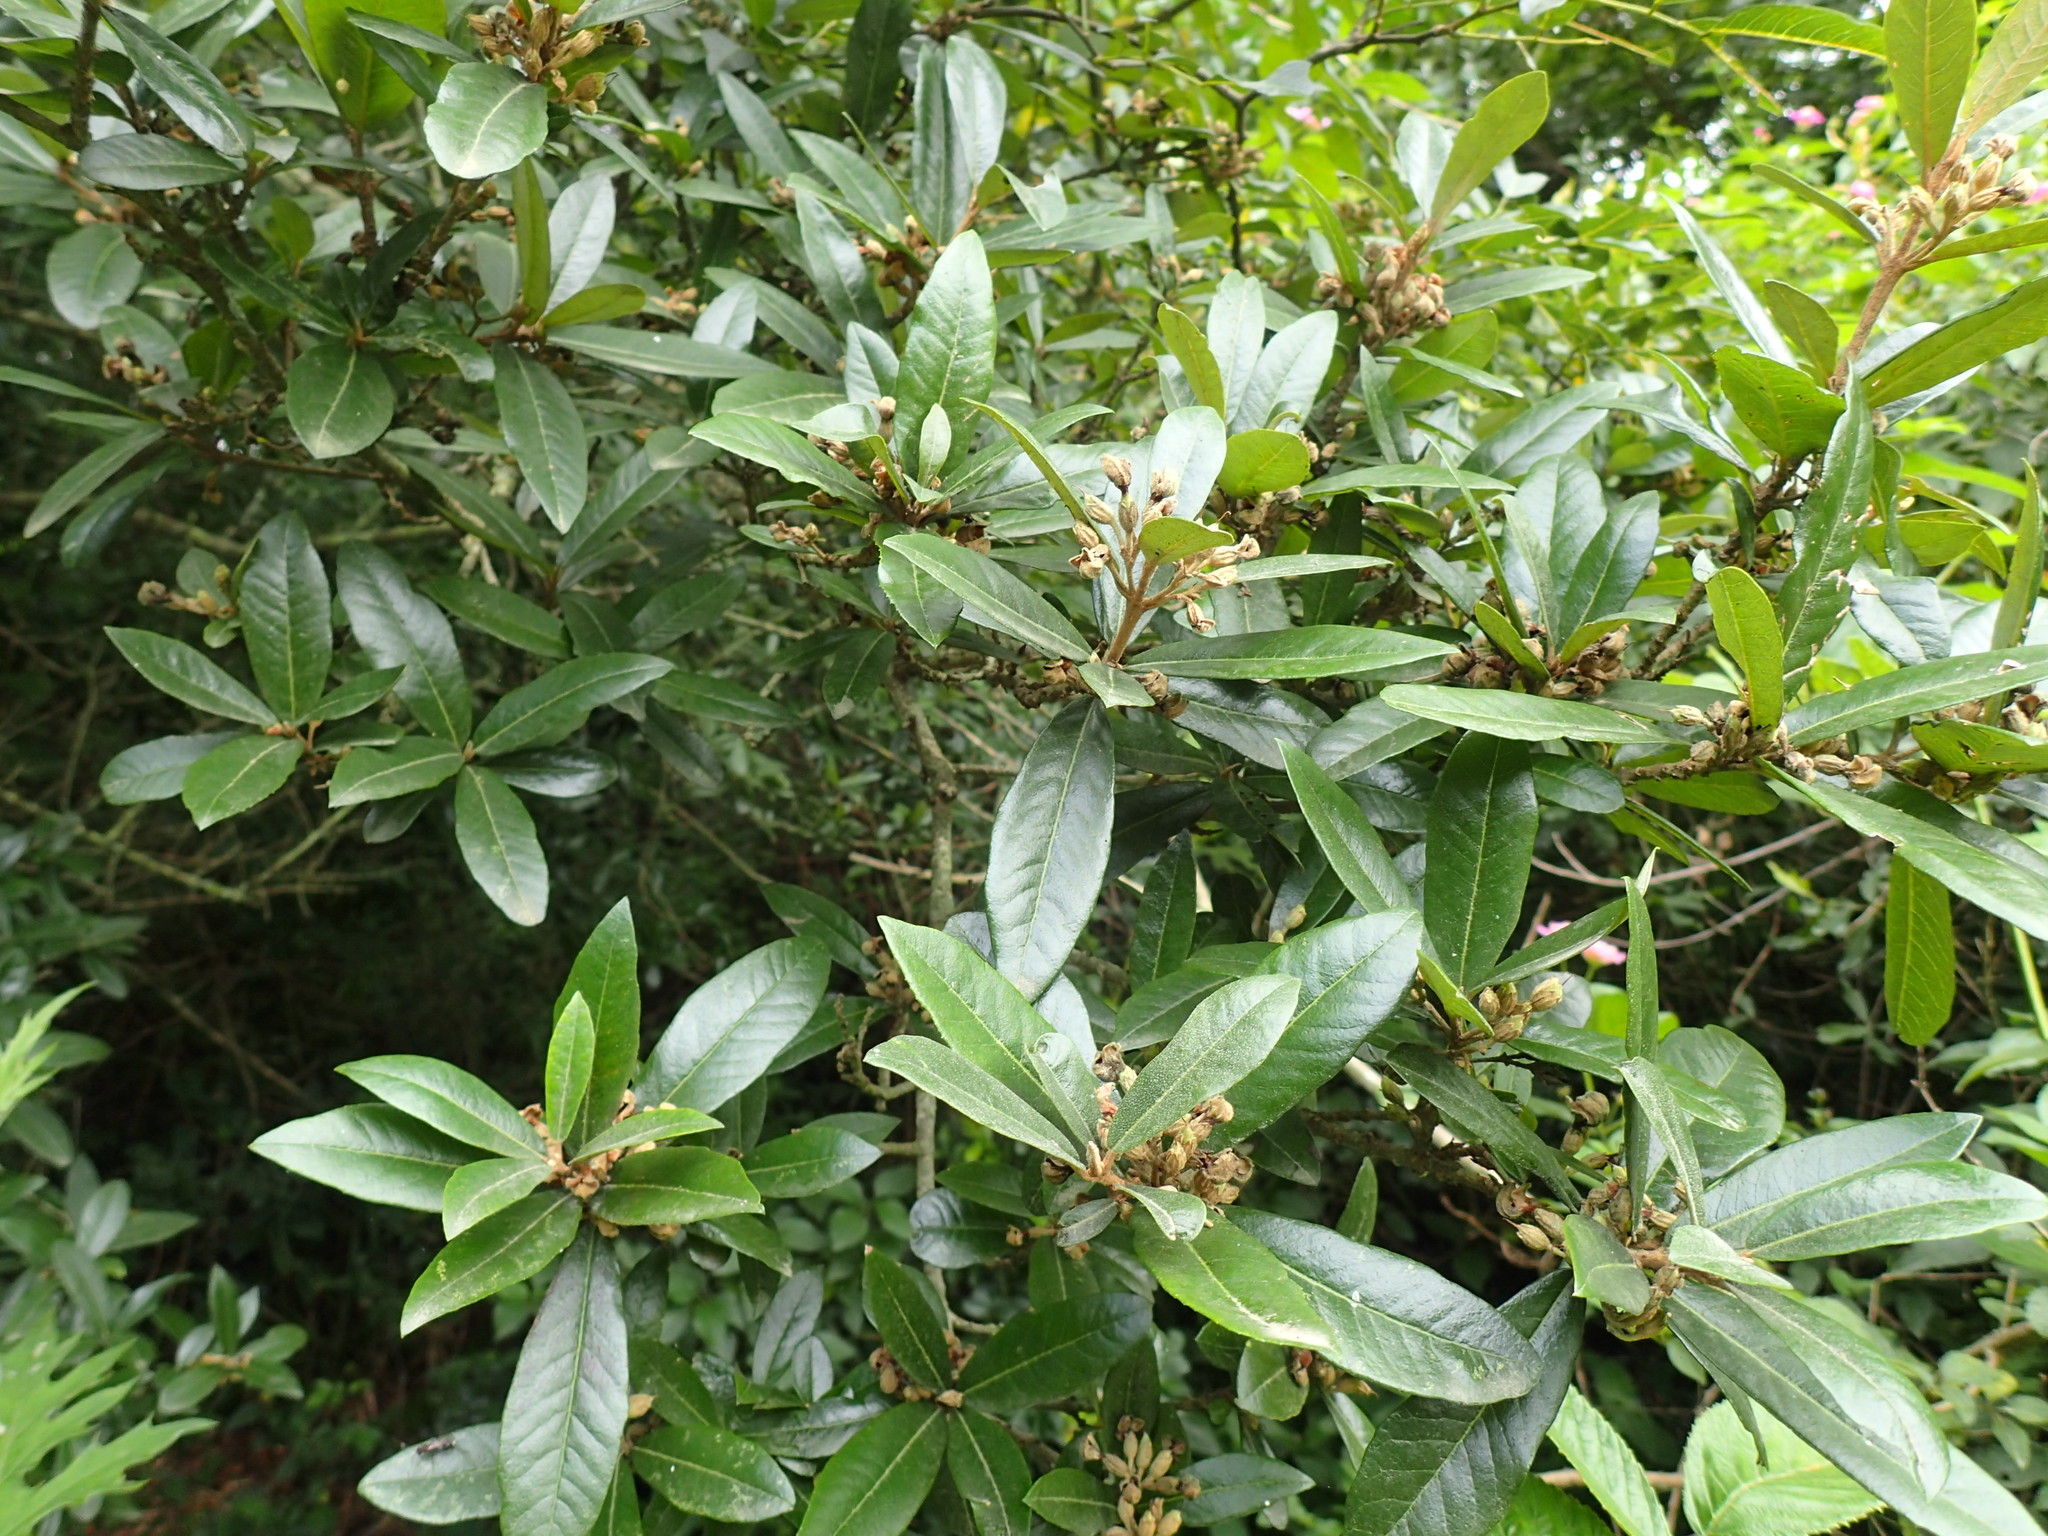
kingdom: Plantae
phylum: Tracheophyta
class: Magnoliopsida
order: Lamiales
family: Stilbaceae
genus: Anastrabe
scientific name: Anastrabe integerrima
